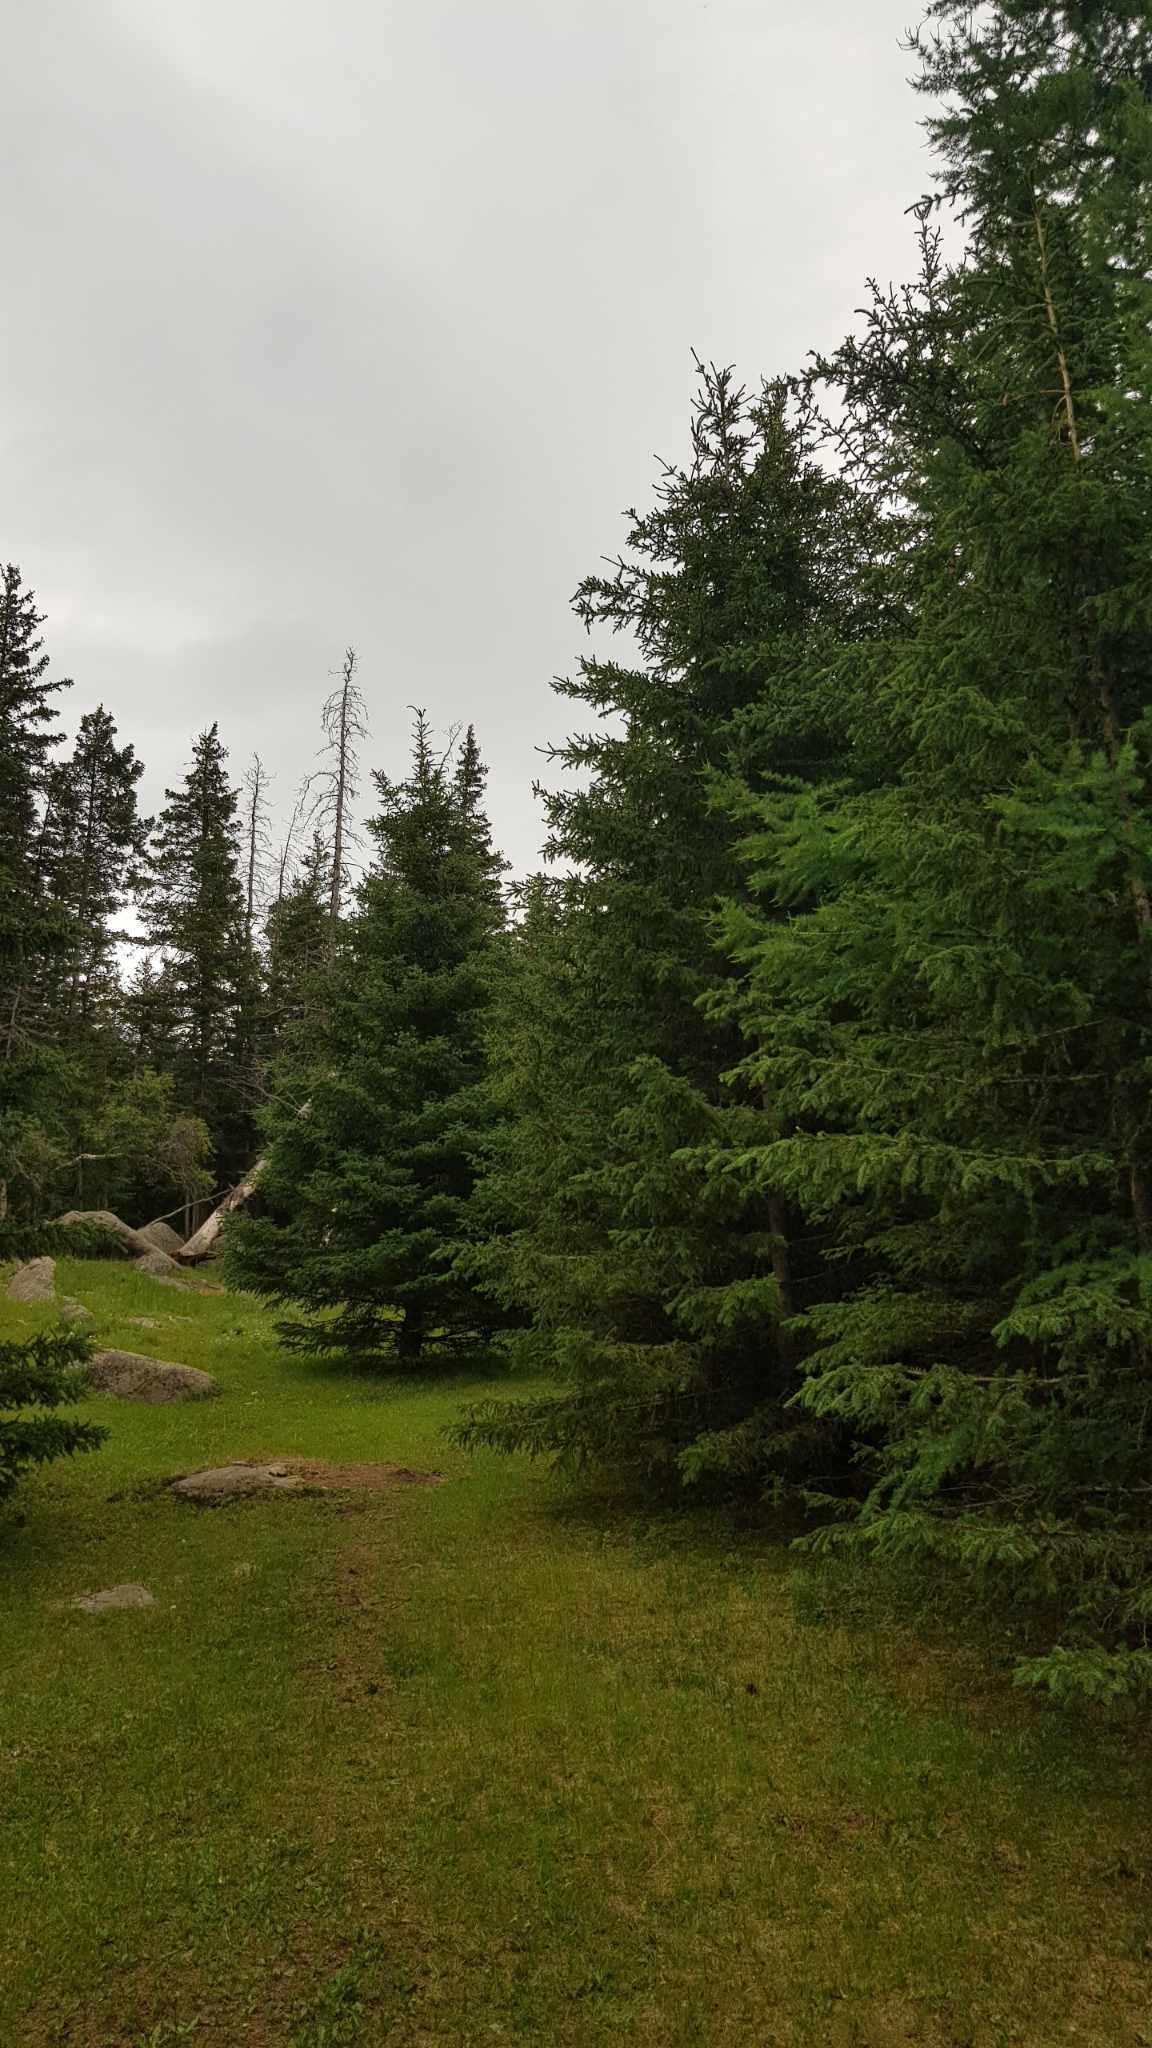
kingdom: Plantae
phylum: Tracheophyta
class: Pinopsida
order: Pinales
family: Pinaceae
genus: Picea
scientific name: Picea obovata
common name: Siberian spruce
